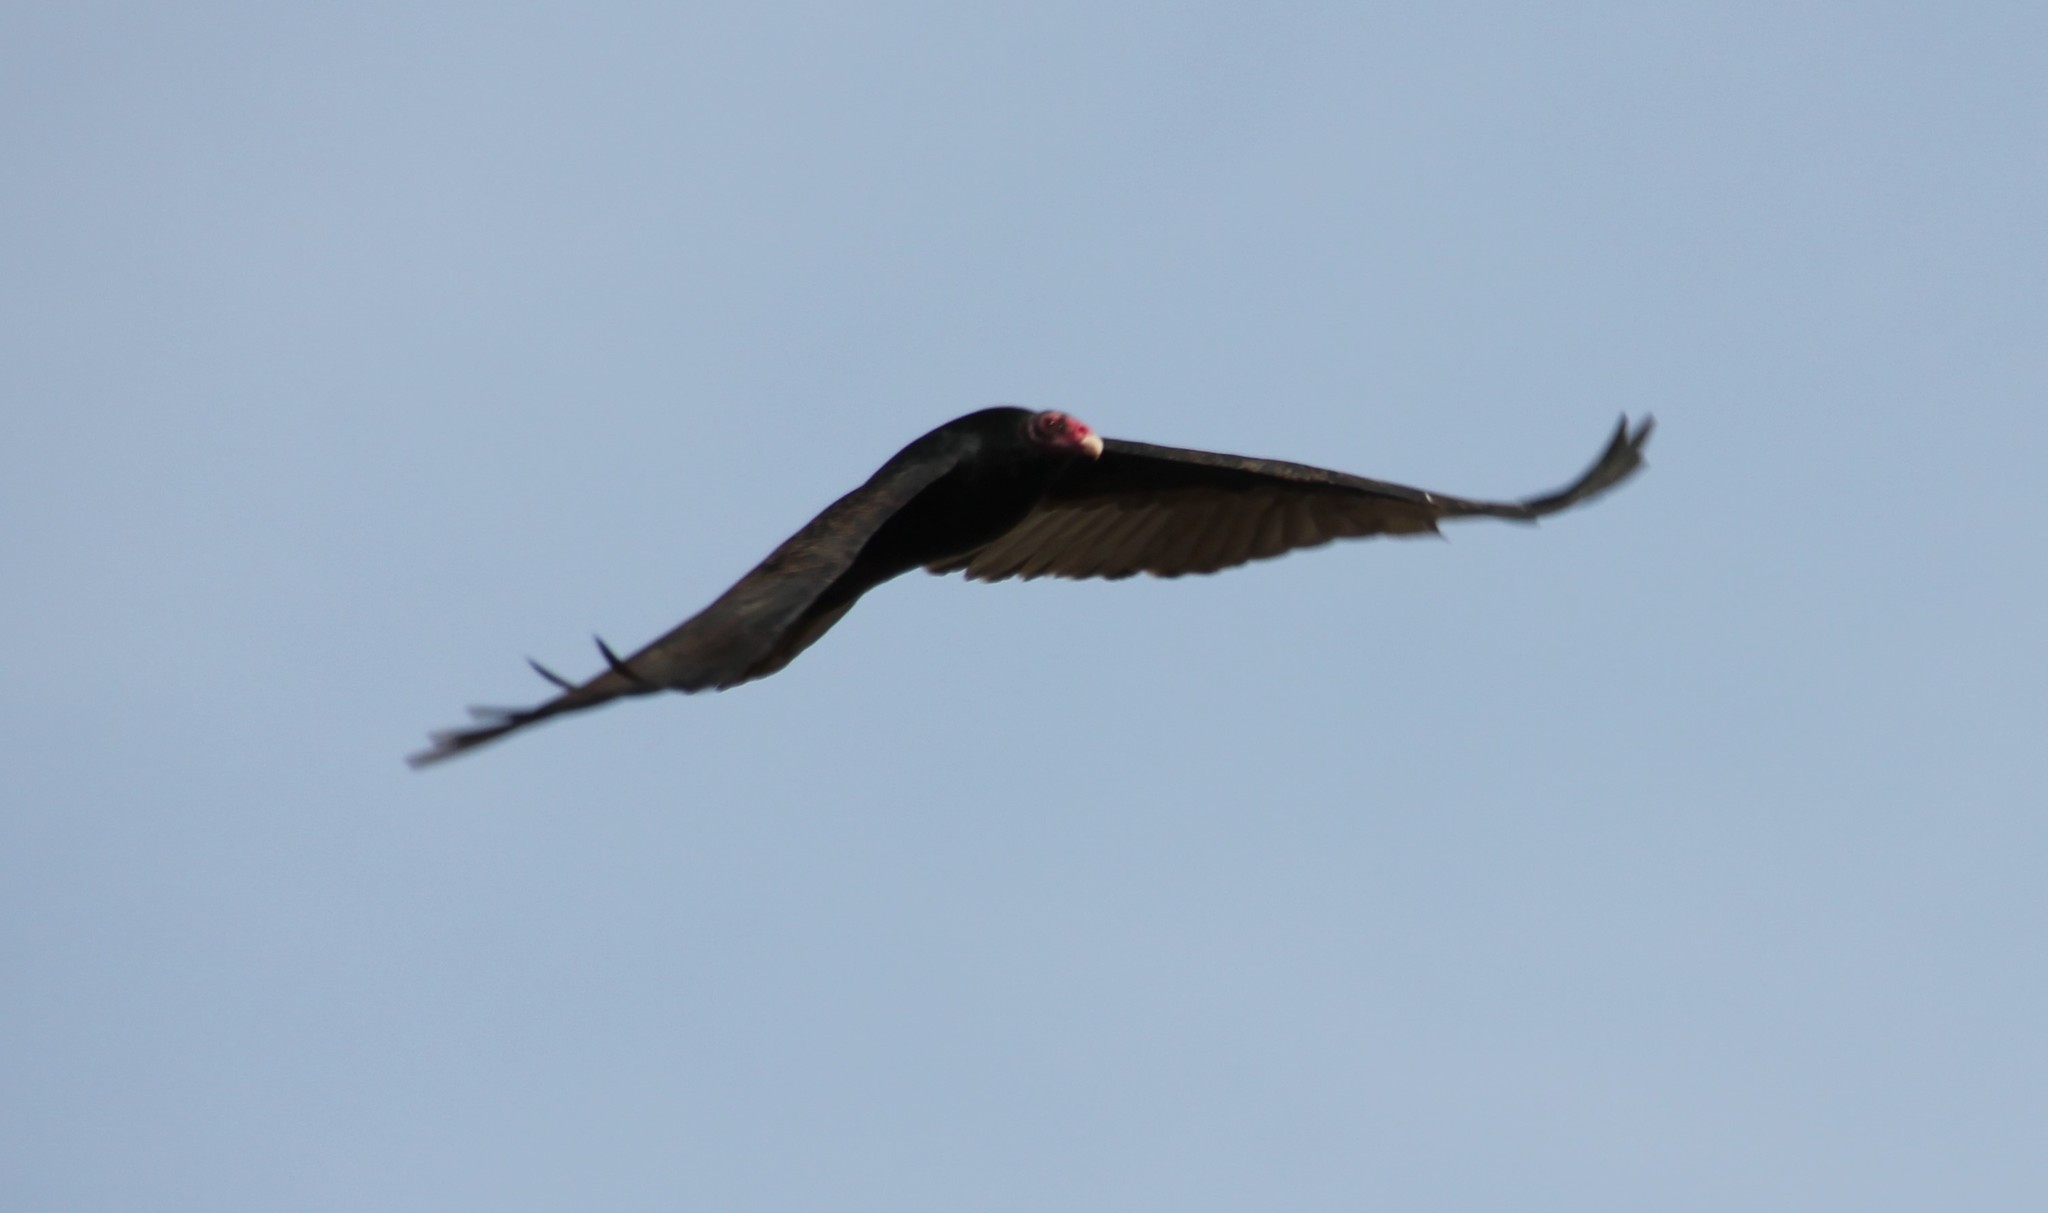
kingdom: Animalia
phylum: Chordata
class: Aves
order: Accipitriformes
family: Cathartidae
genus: Cathartes
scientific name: Cathartes aura
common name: Turkey vulture
